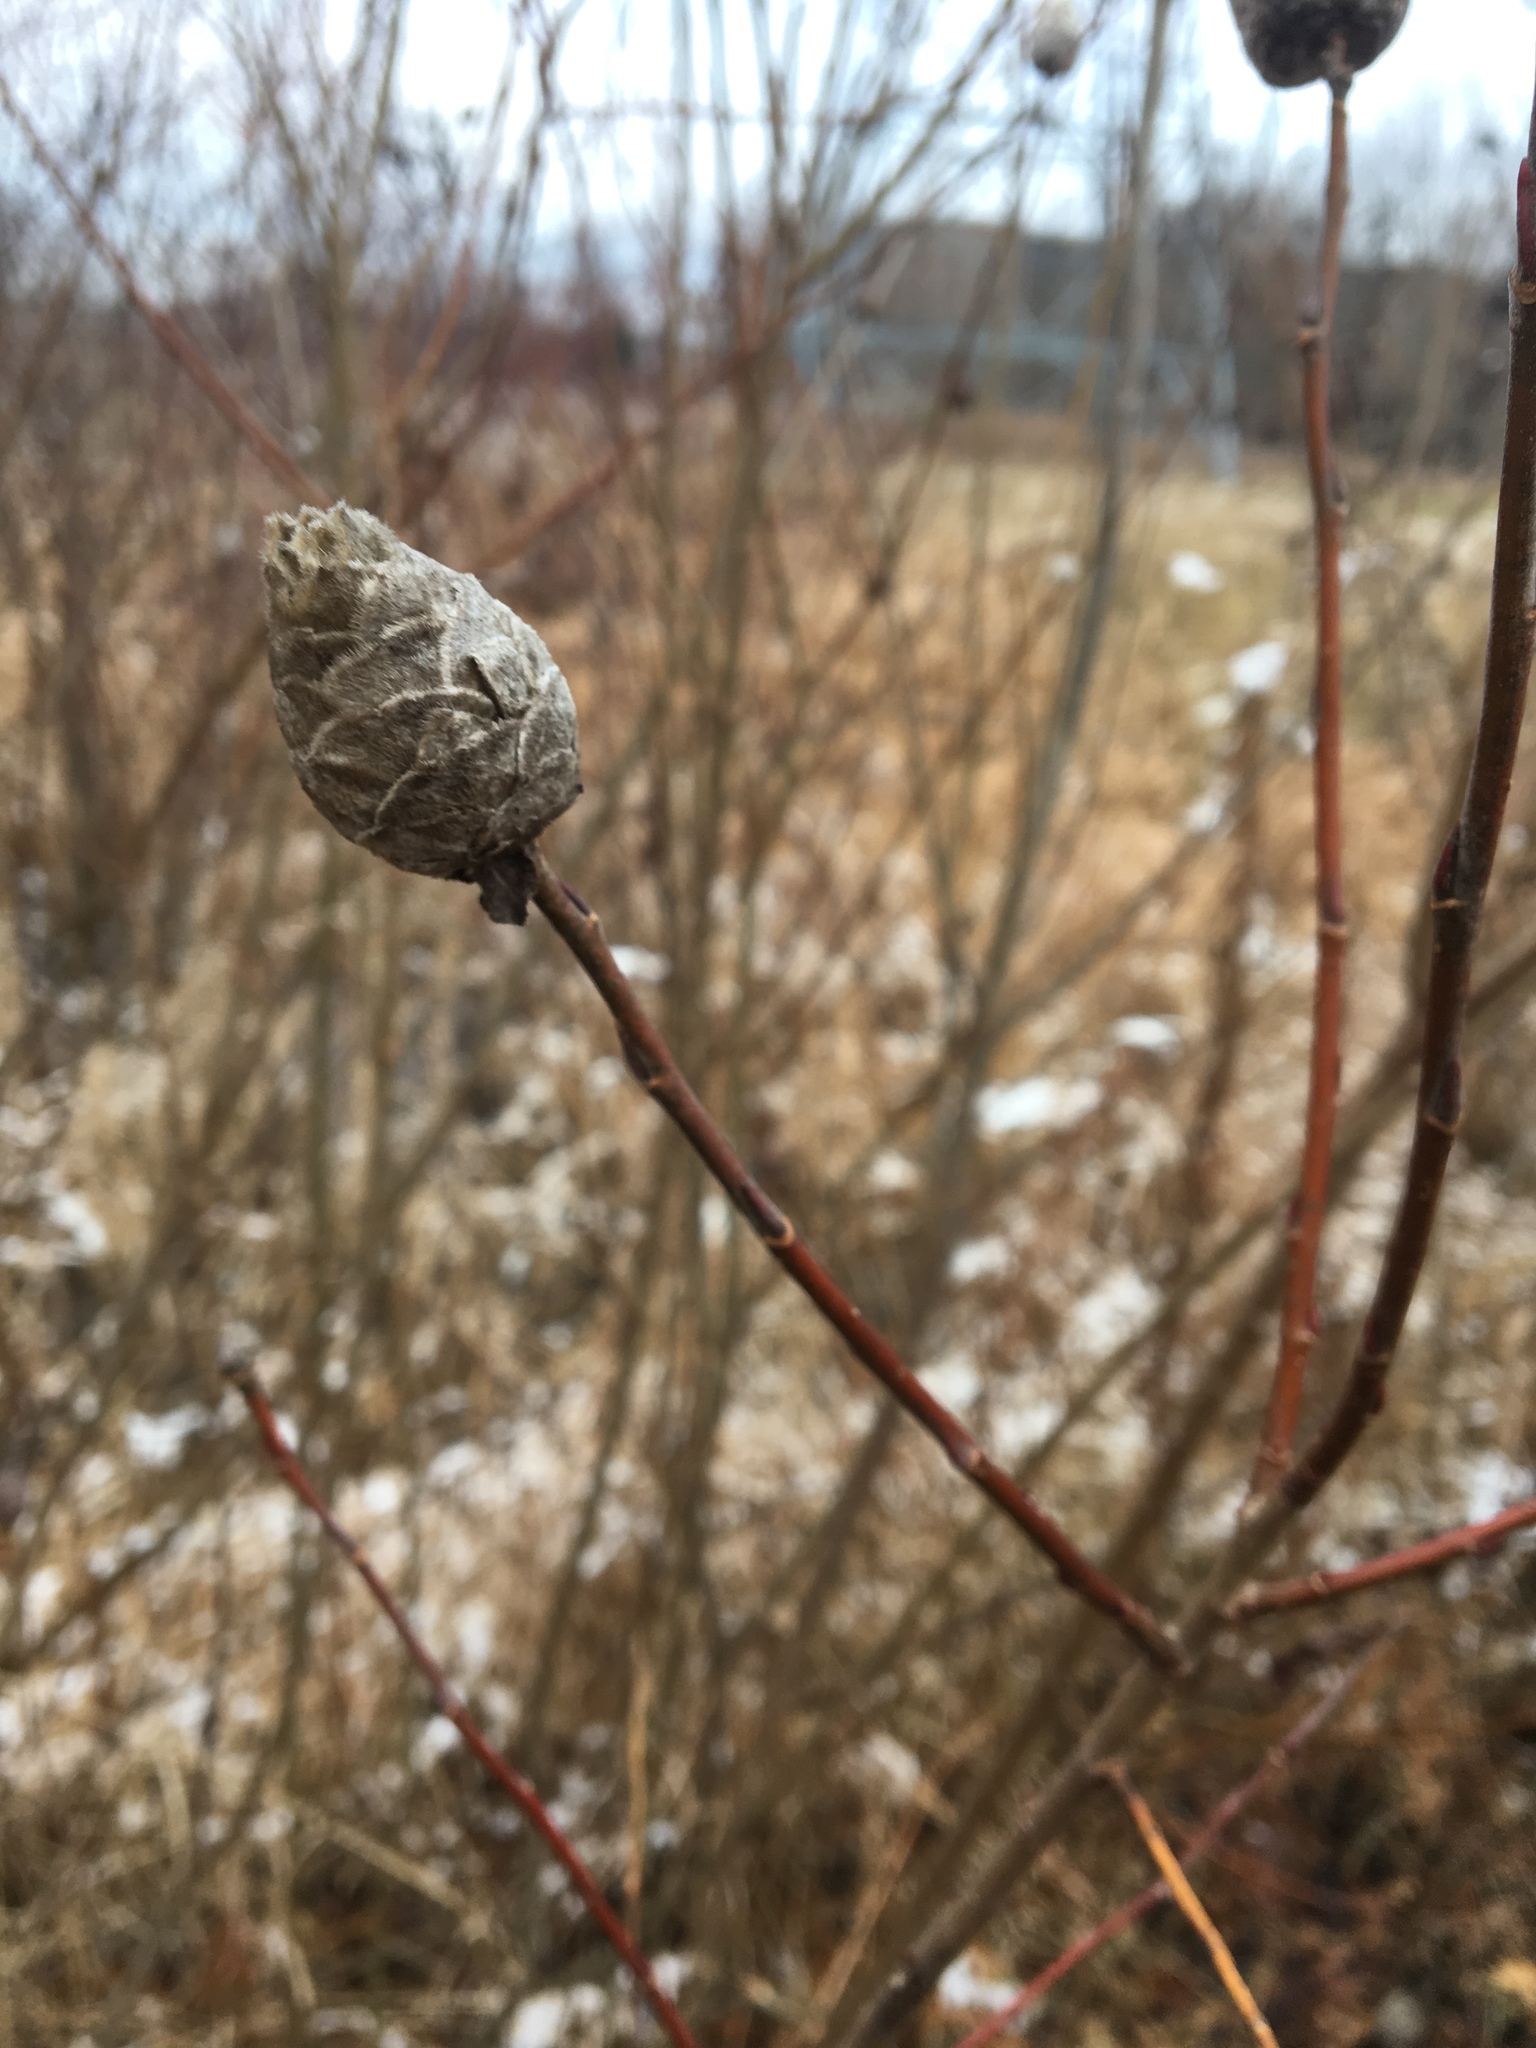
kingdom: Animalia
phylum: Arthropoda
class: Insecta
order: Diptera
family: Cecidomyiidae
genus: Rabdophaga
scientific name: Rabdophaga strobiloides
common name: Willow pinecone gall midge
